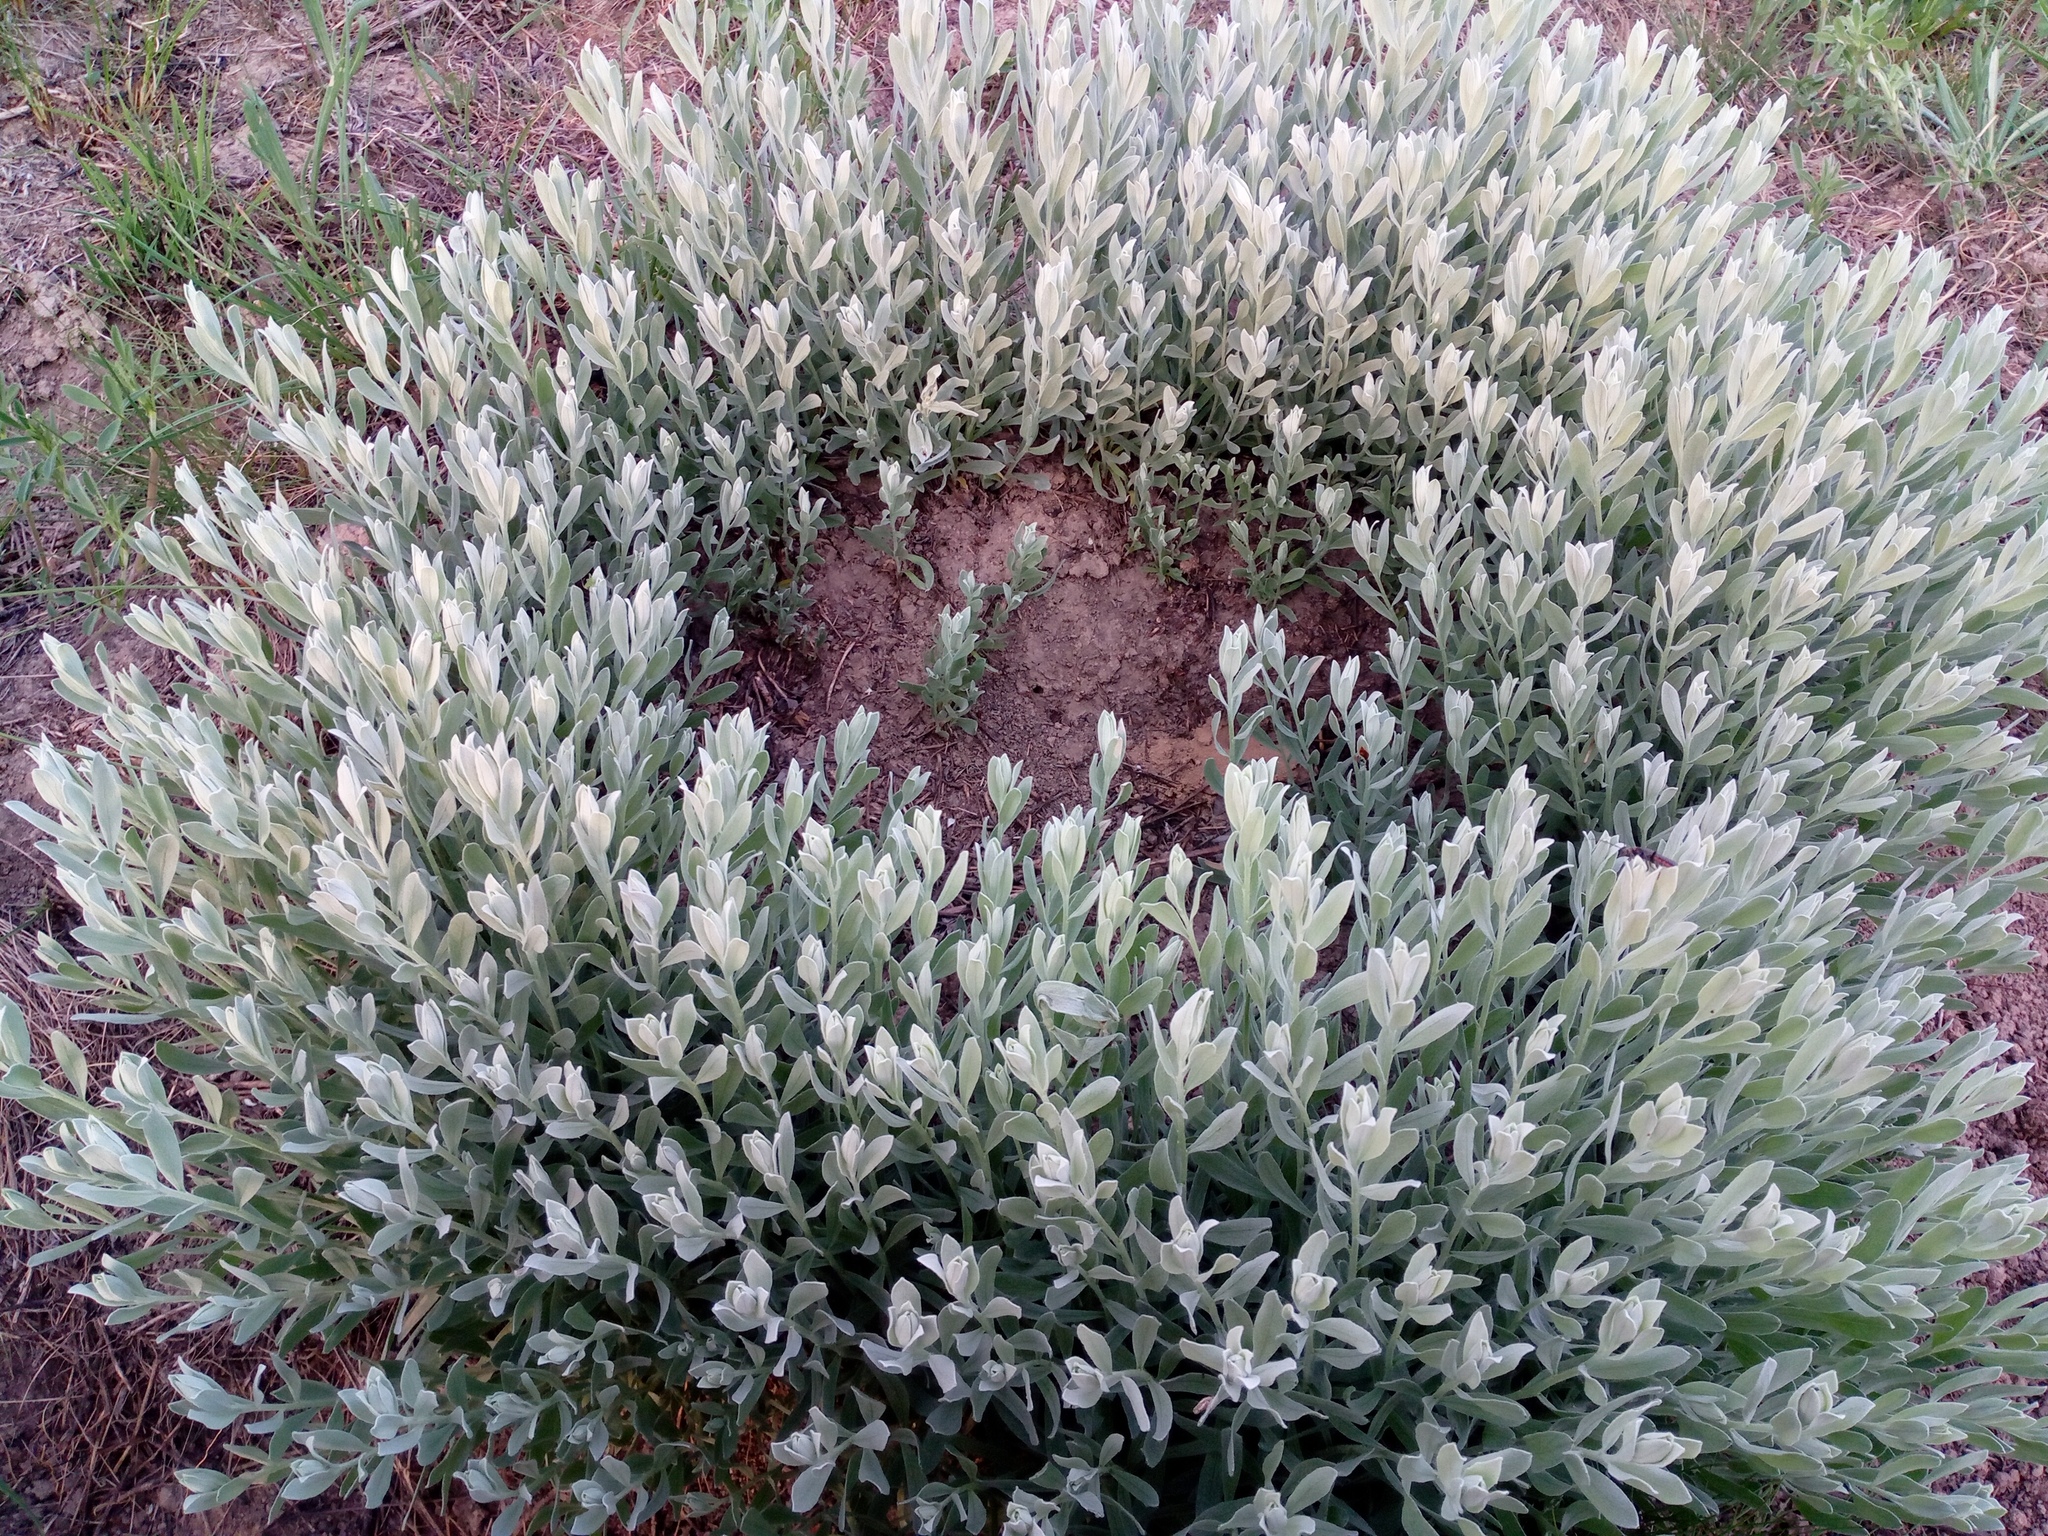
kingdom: Plantae
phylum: Tracheophyta
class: Magnoliopsida
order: Asterales
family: Asteraceae
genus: Galatella
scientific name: Galatella villosa
